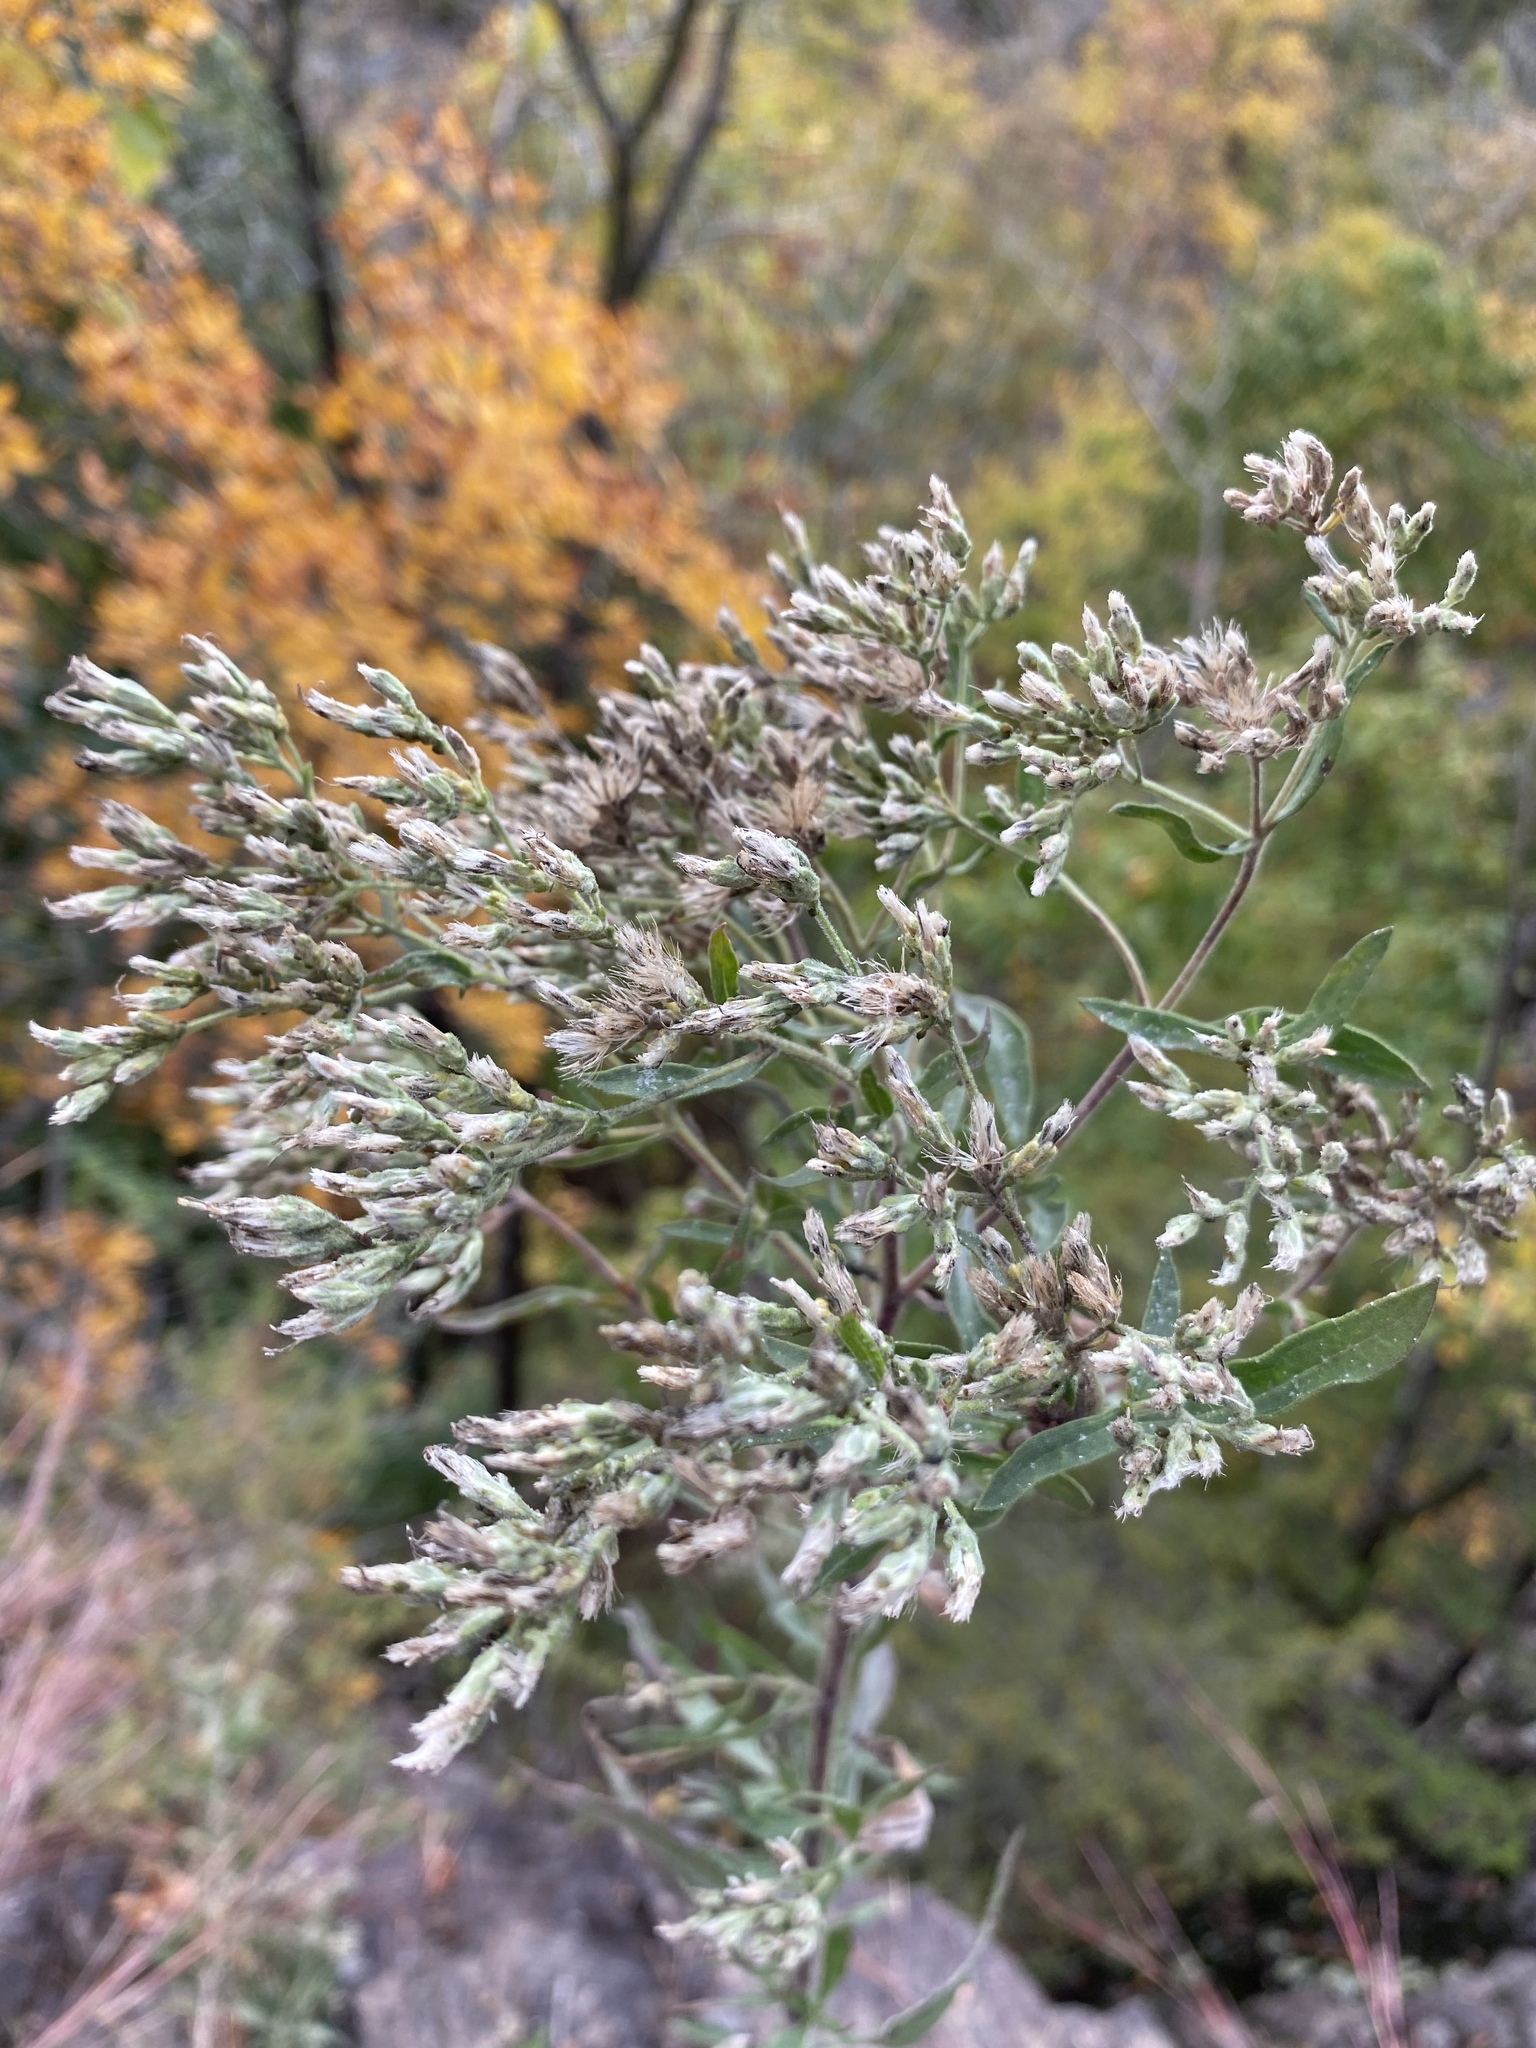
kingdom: Plantae
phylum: Tracheophyta
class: Magnoliopsida
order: Asterales
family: Asteraceae
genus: Eupatorium
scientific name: Eupatorium altissimum
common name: Tall thoroughwort
